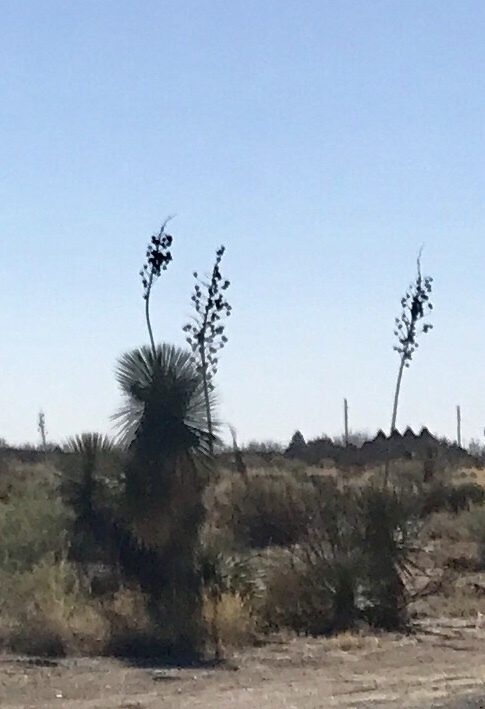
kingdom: Plantae
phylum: Tracheophyta
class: Liliopsida
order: Asparagales
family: Asparagaceae
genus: Yucca
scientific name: Yucca elata
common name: Palmella
